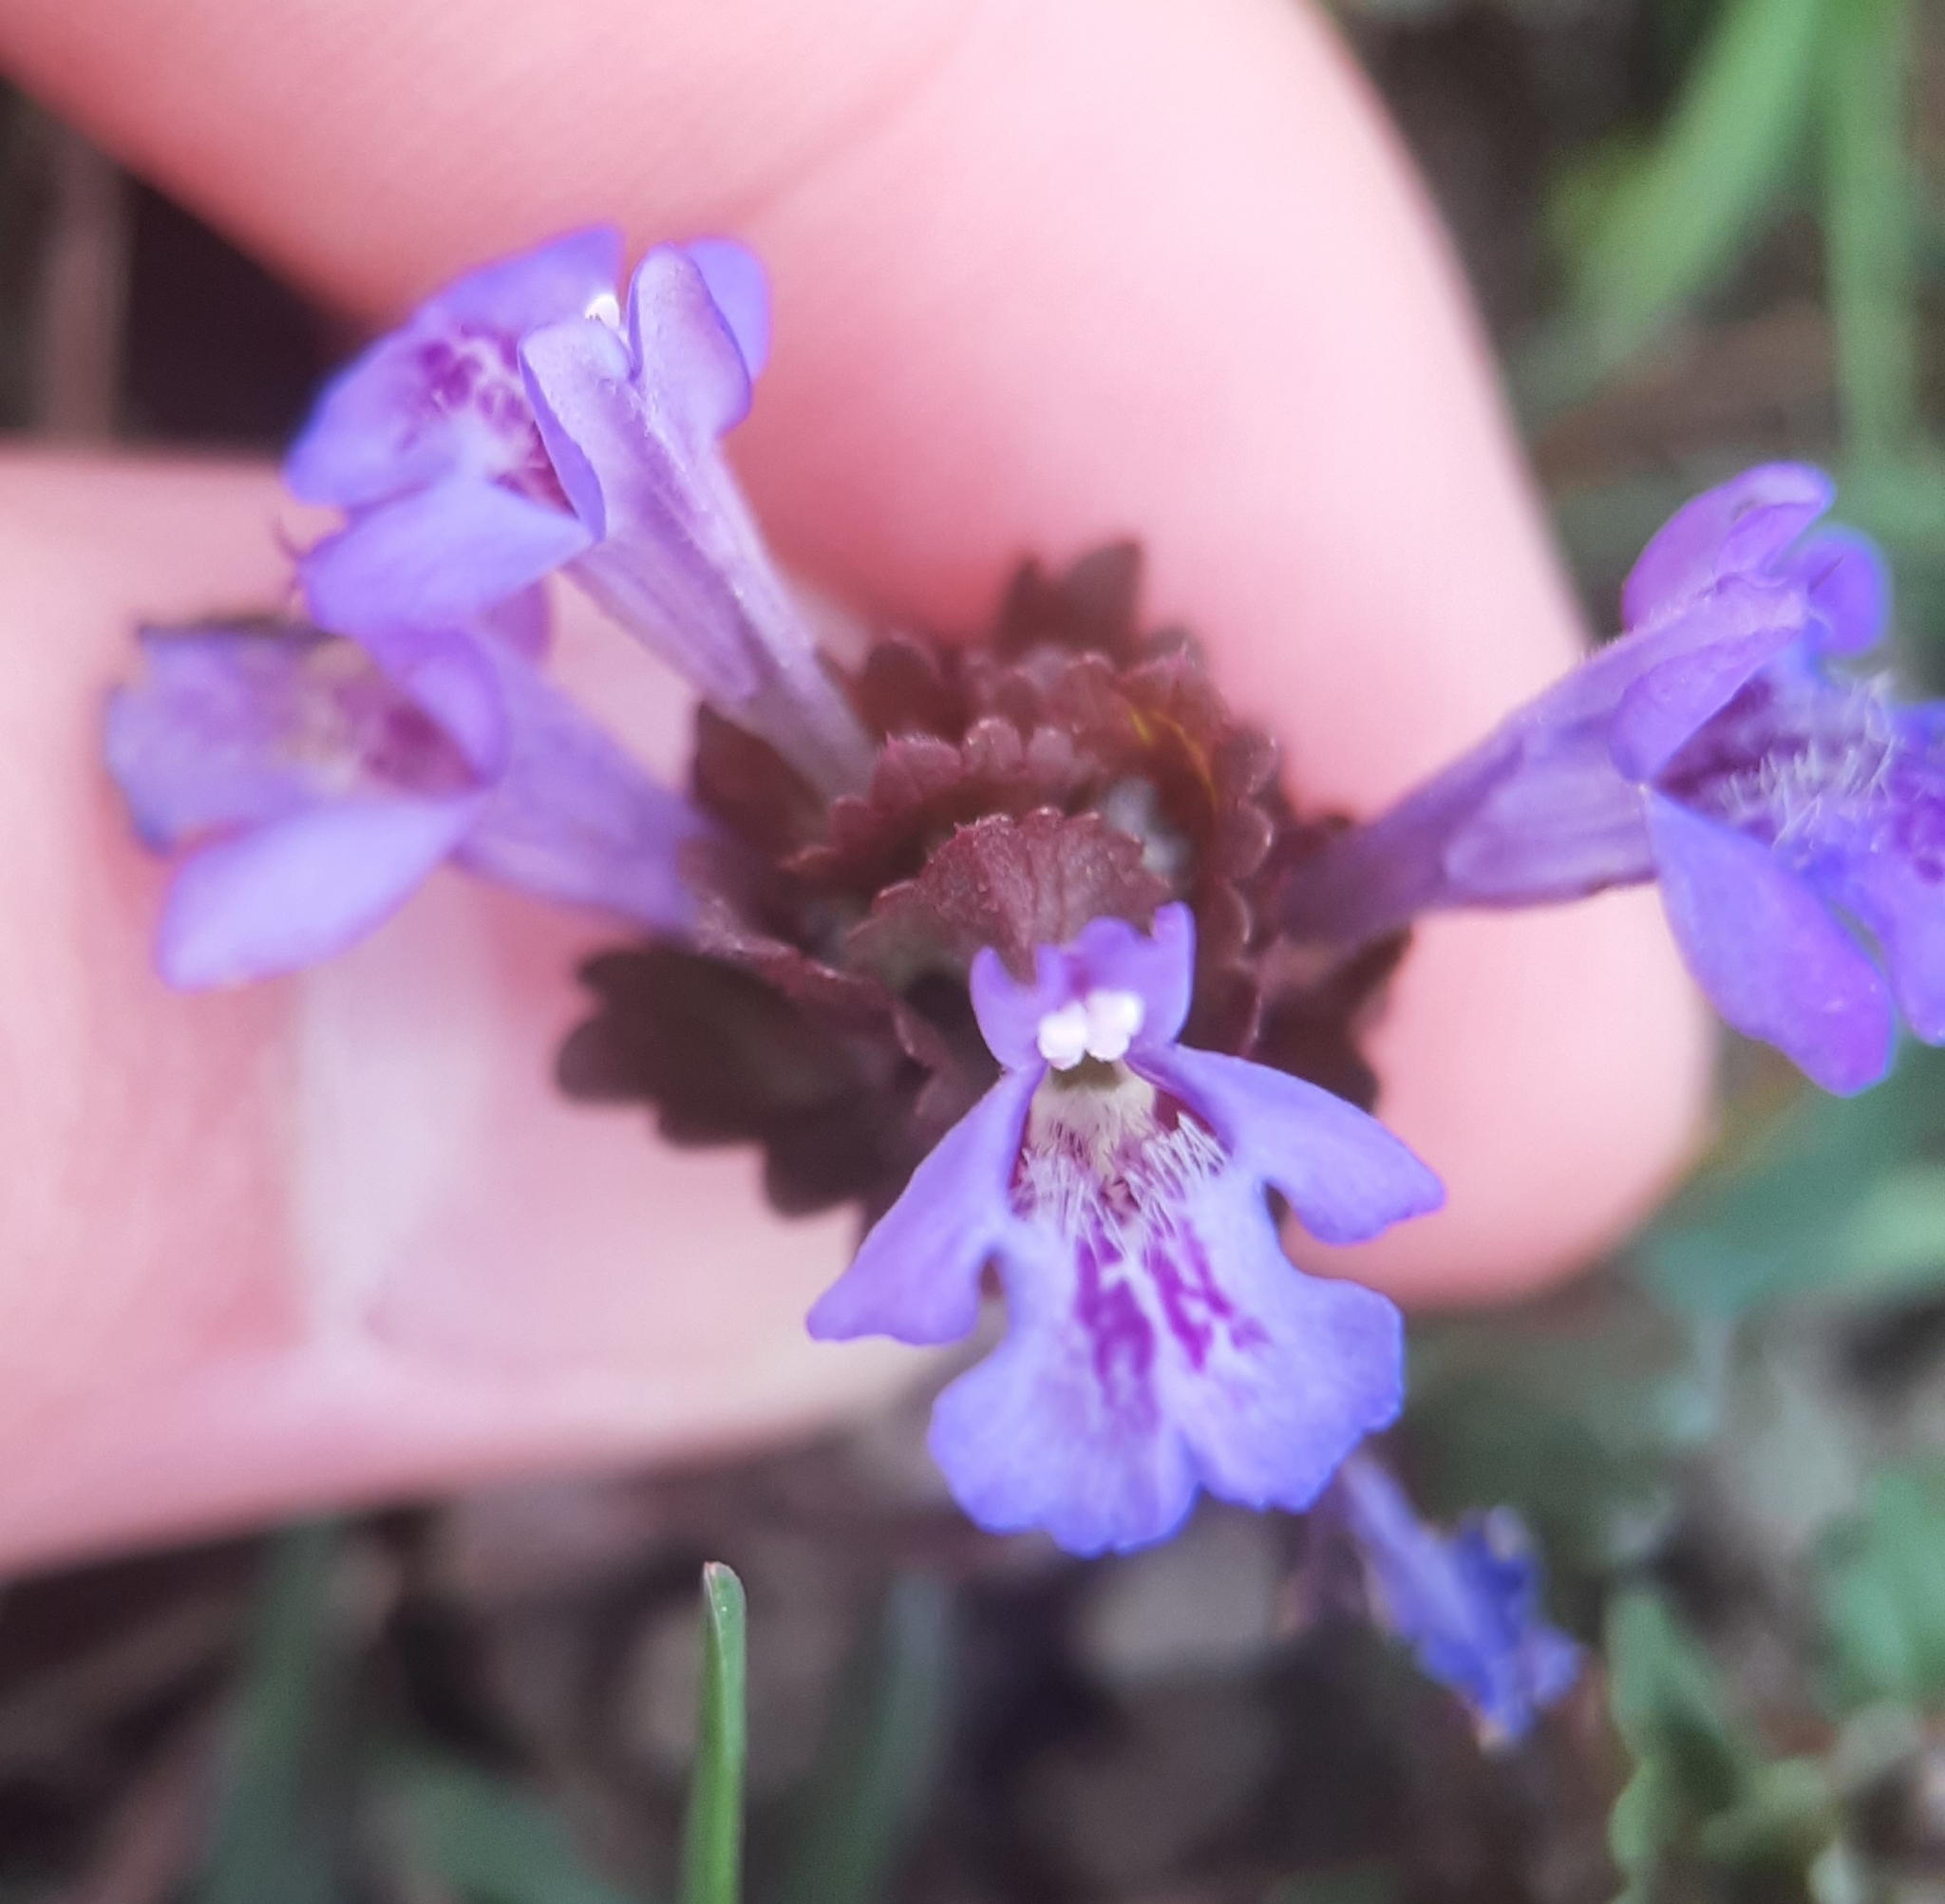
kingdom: Plantae
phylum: Tracheophyta
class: Magnoliopsida
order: Lamiales
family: Lamiaceae
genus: Glechoma
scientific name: Glechoma hederacea
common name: Ground ivy
